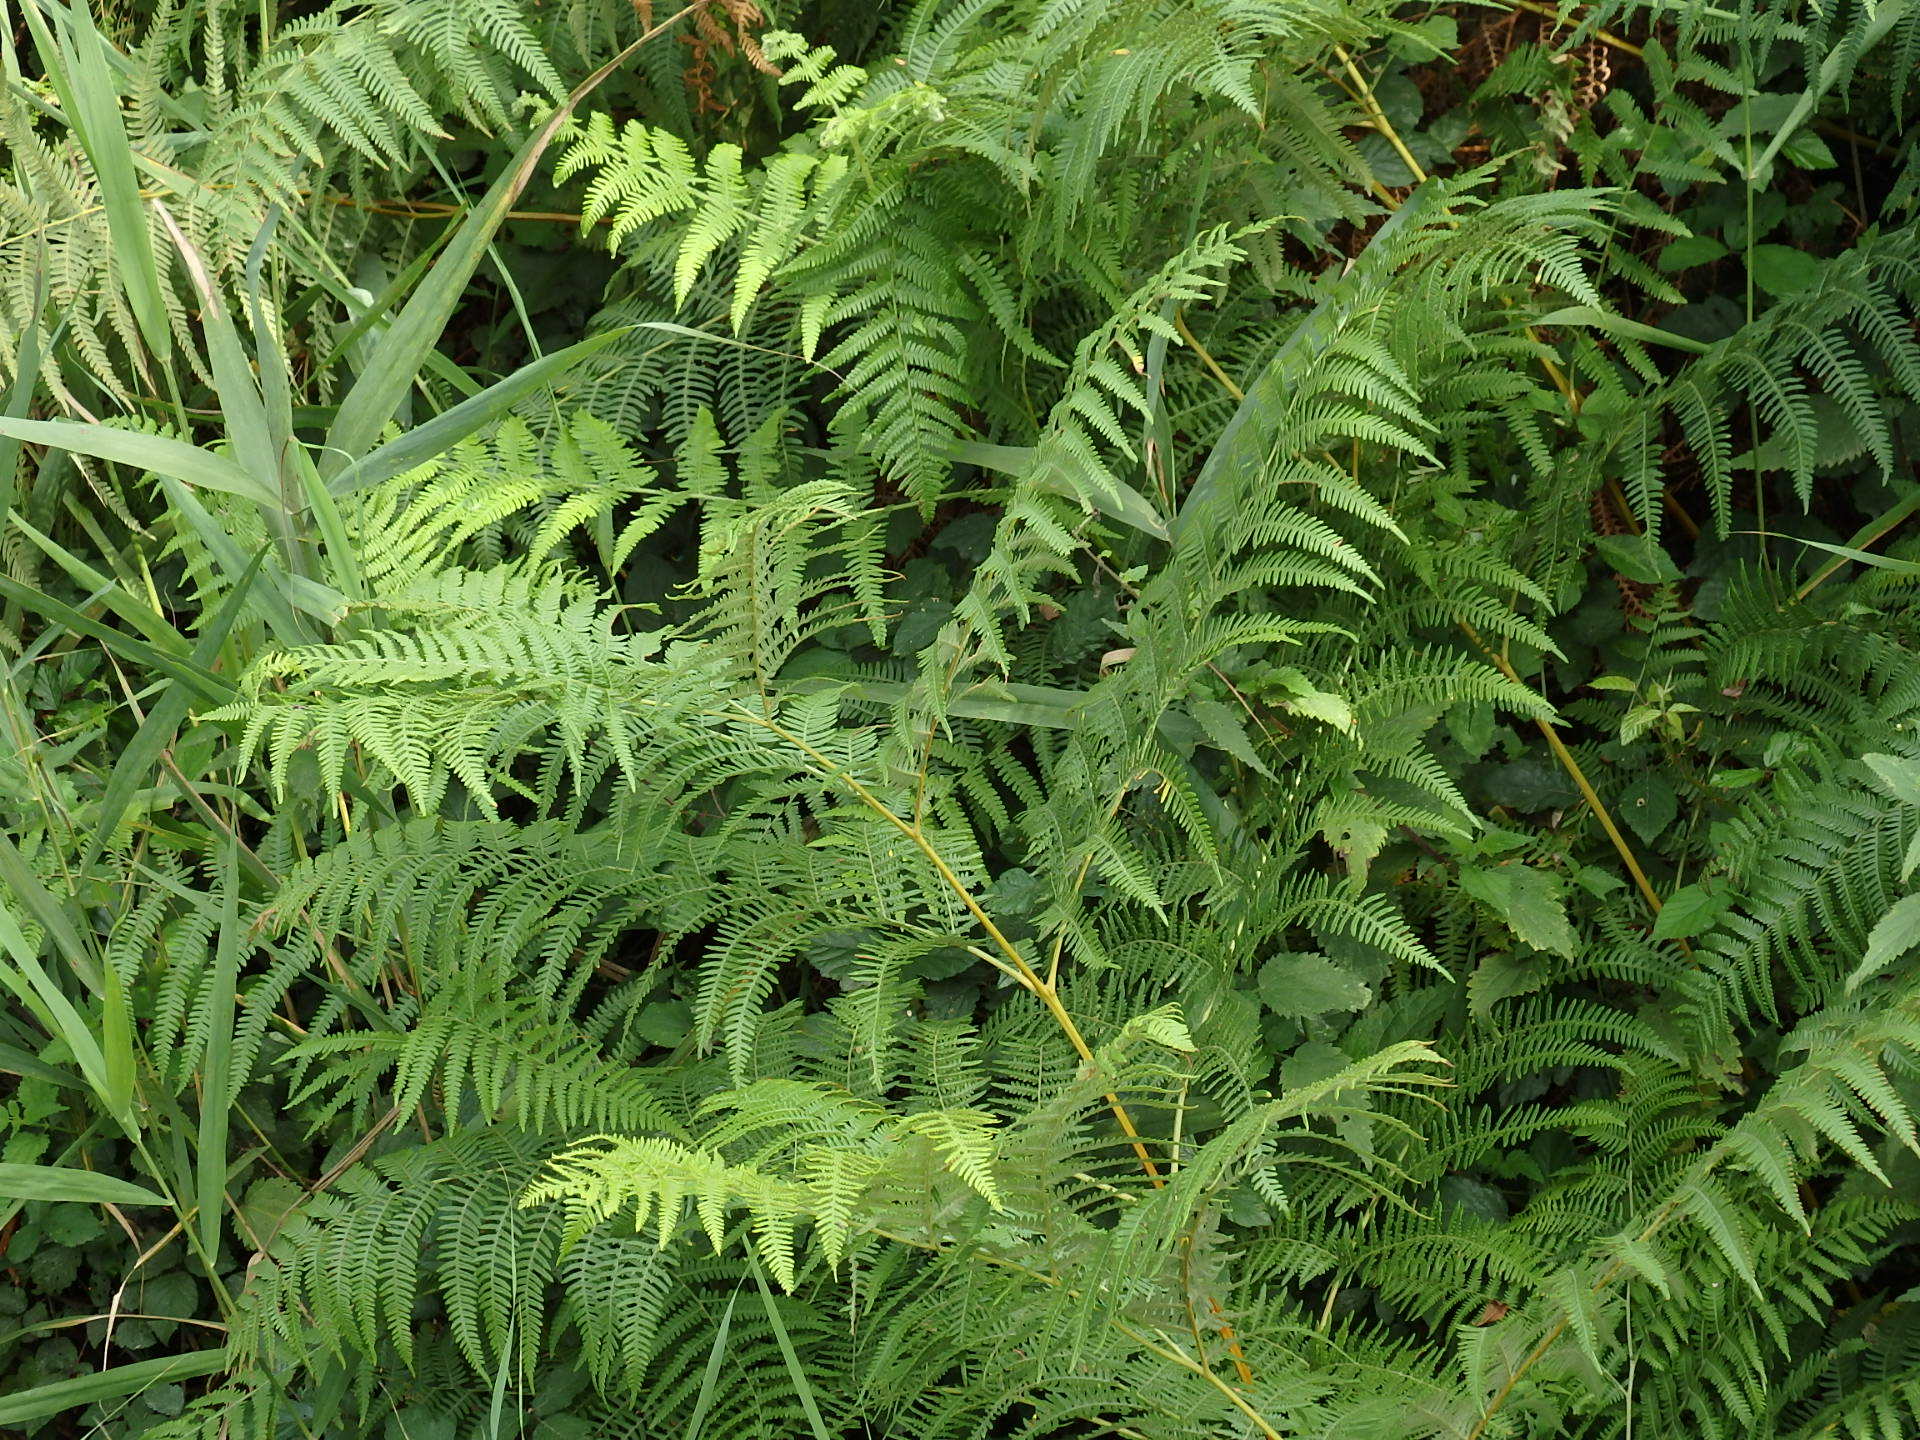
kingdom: Plantae
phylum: Tracheophyta
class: Polypodiopsida
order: Polypodiales
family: Dennstaedtiaceae
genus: Pteridium
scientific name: Pteridium aquilinum
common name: Bracken
